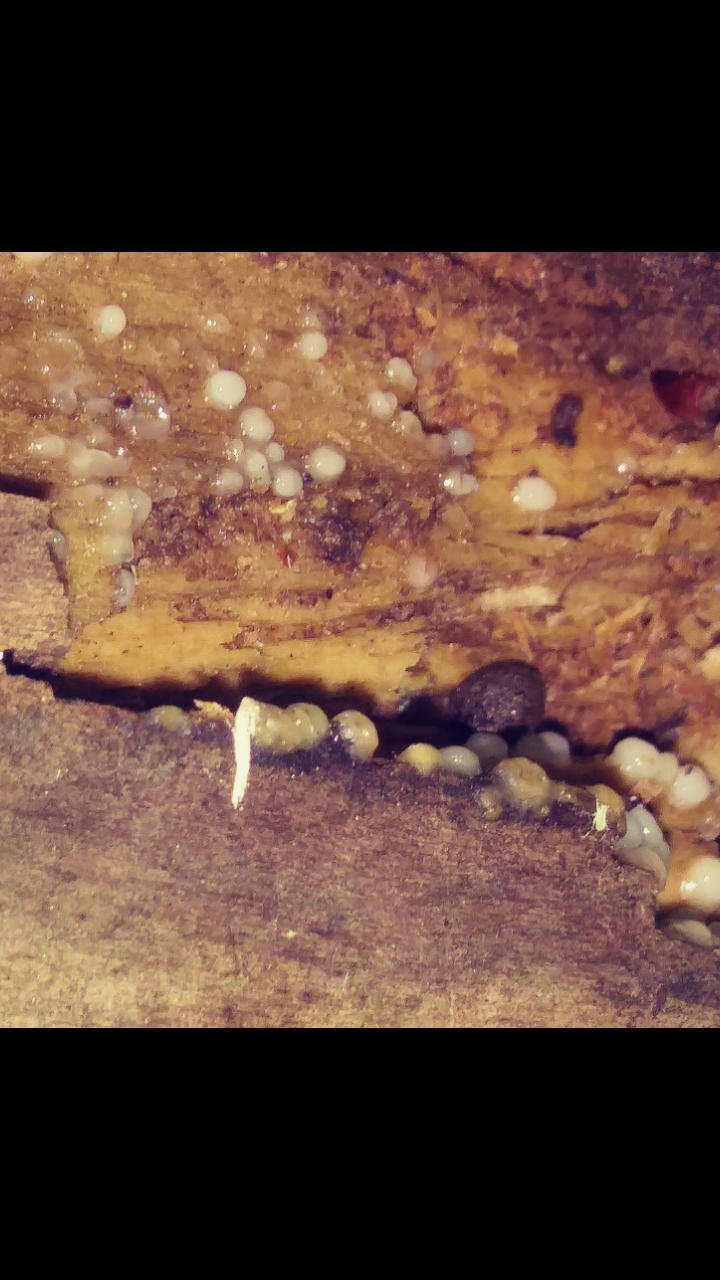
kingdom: Fungi
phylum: Basidiomycota
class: Atractiellomycetes
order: Atractiellales
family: Phleogenaceae
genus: Helicogloea
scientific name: Helicogloea compressa
